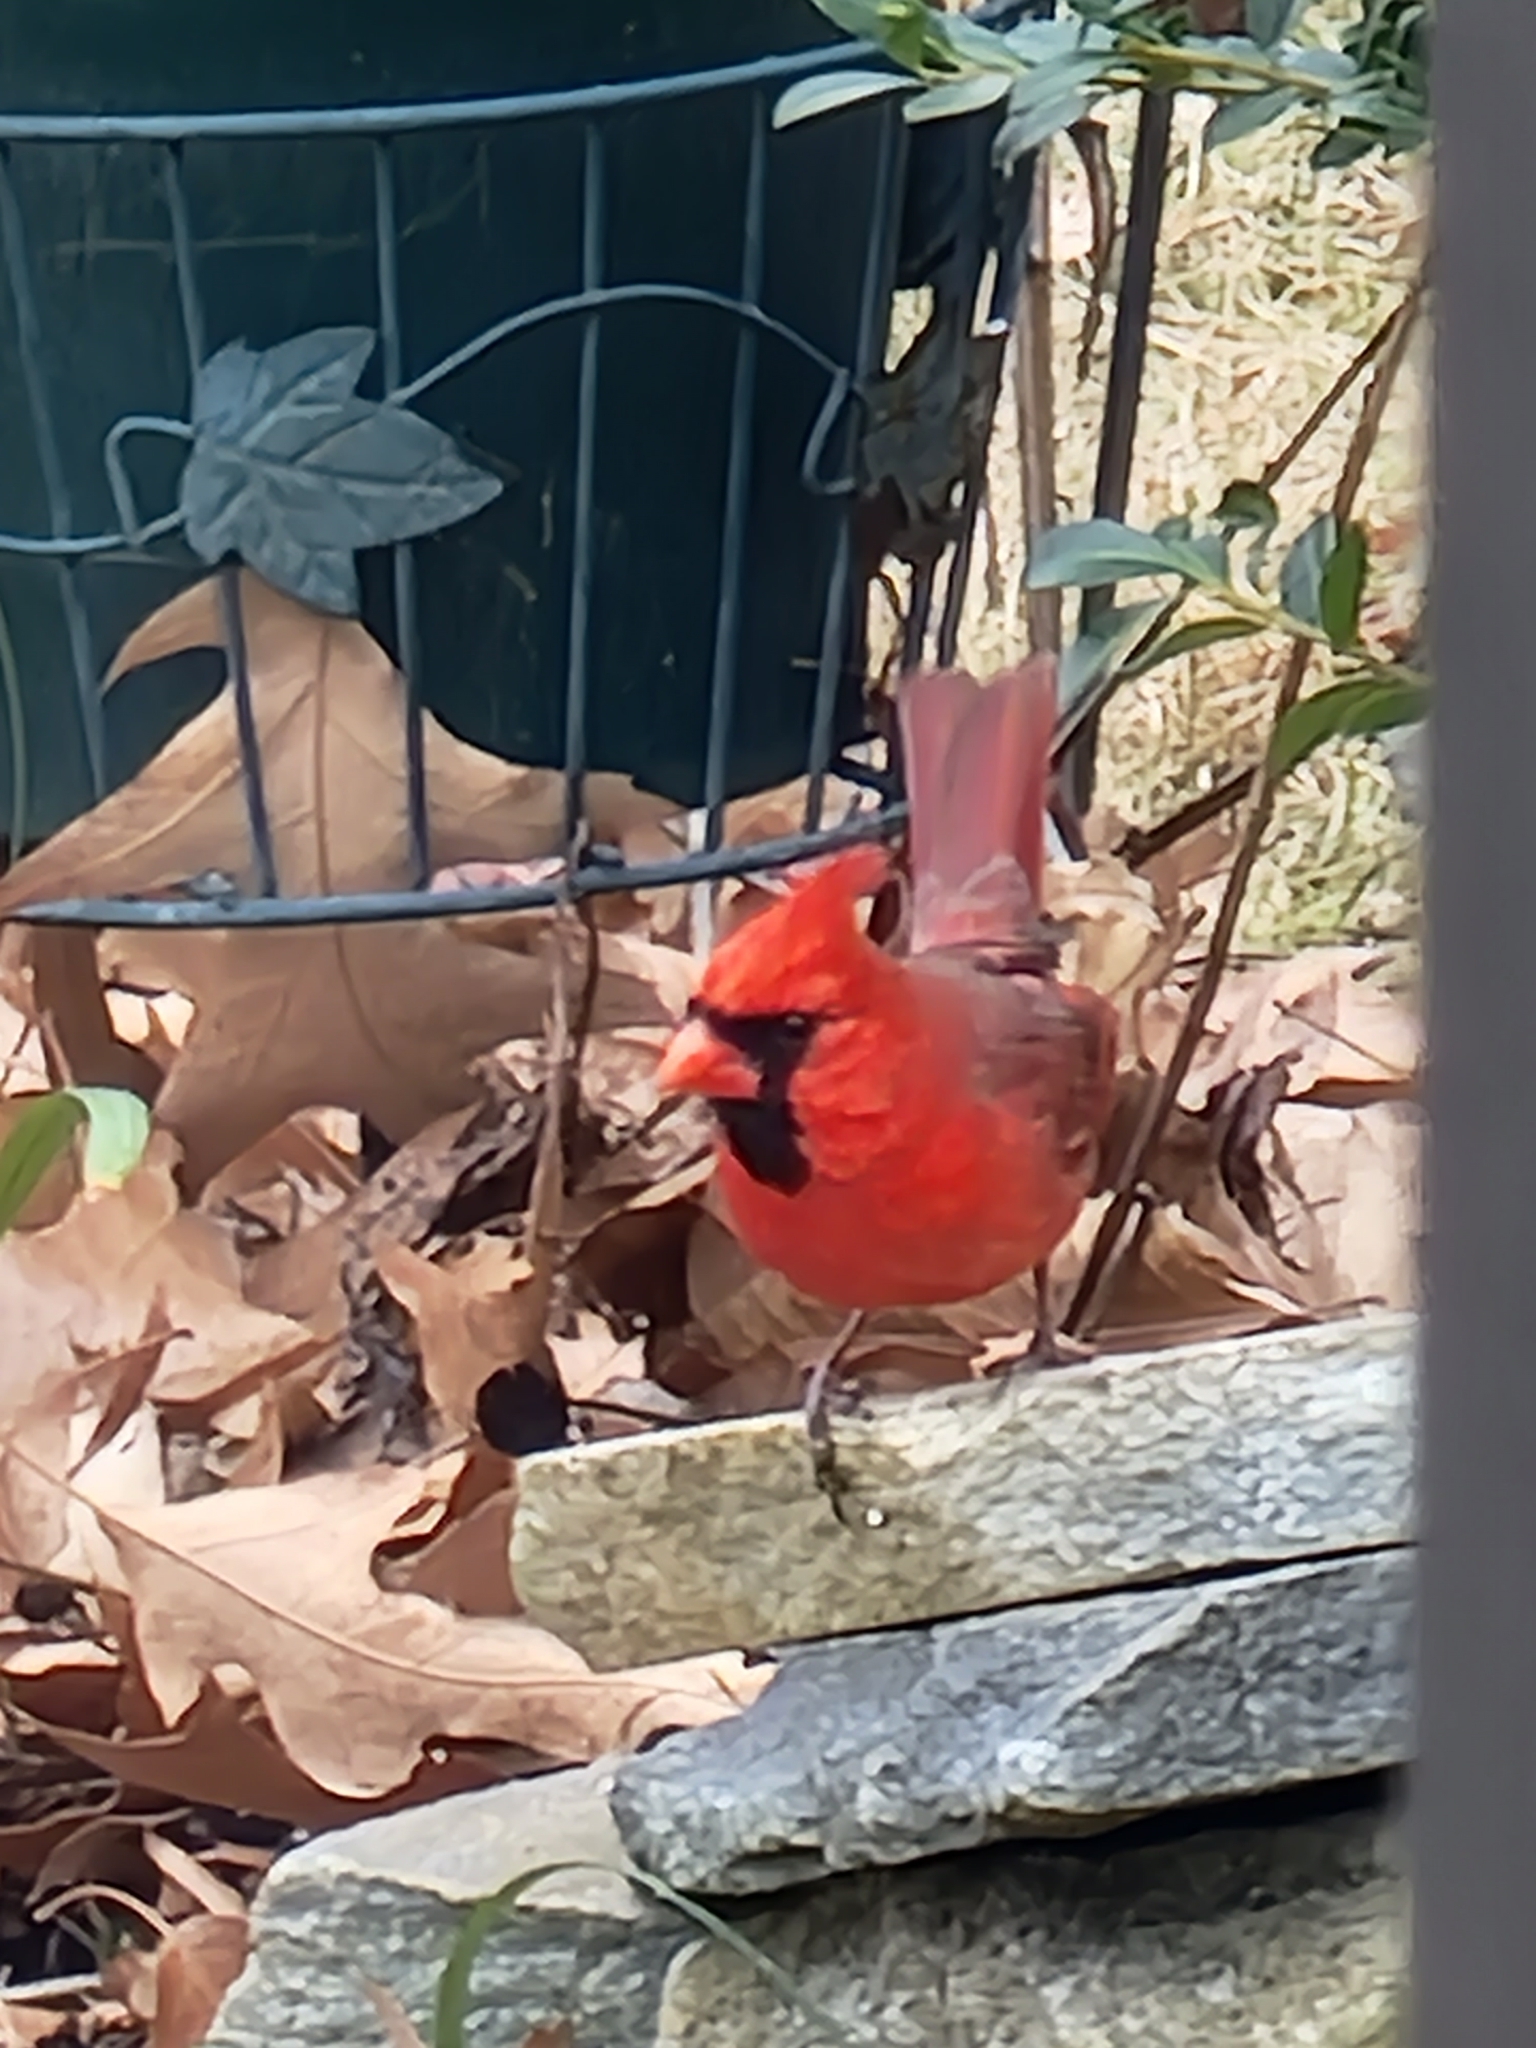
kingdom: Animalia
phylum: Chordata
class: Aves
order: Passeriformes
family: Cardinalidae
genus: Cardinalis
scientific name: Cardinalis cardinalis
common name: Northern cardinal
